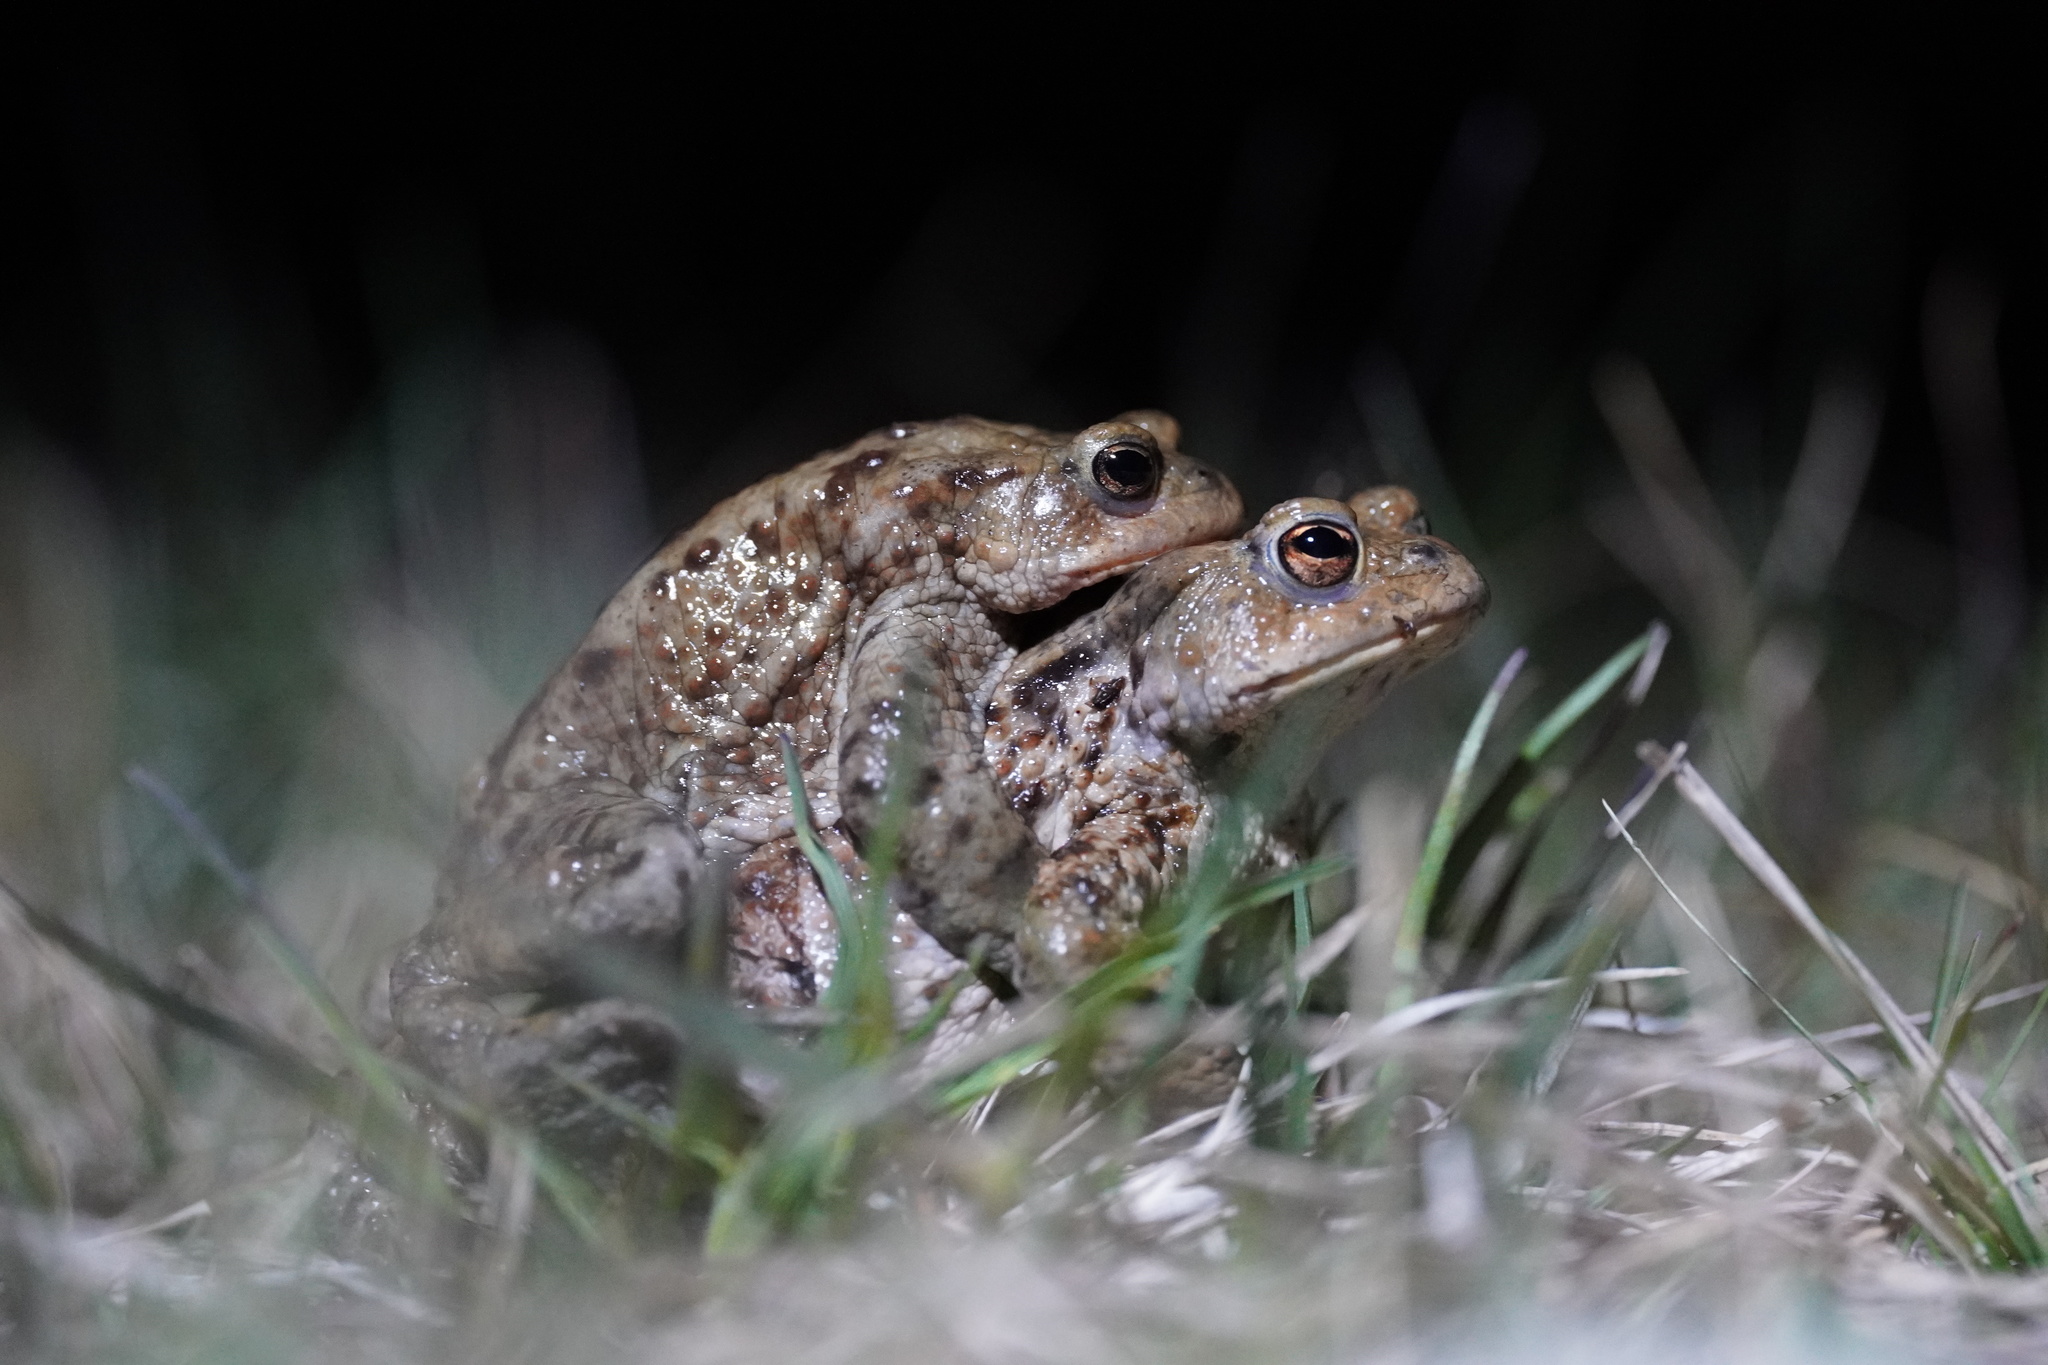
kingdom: Animalia
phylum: Chordata
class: Amphibia
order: Anura
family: Bufonidae
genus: Bufo
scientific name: Bufo bufo
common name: Common toad
